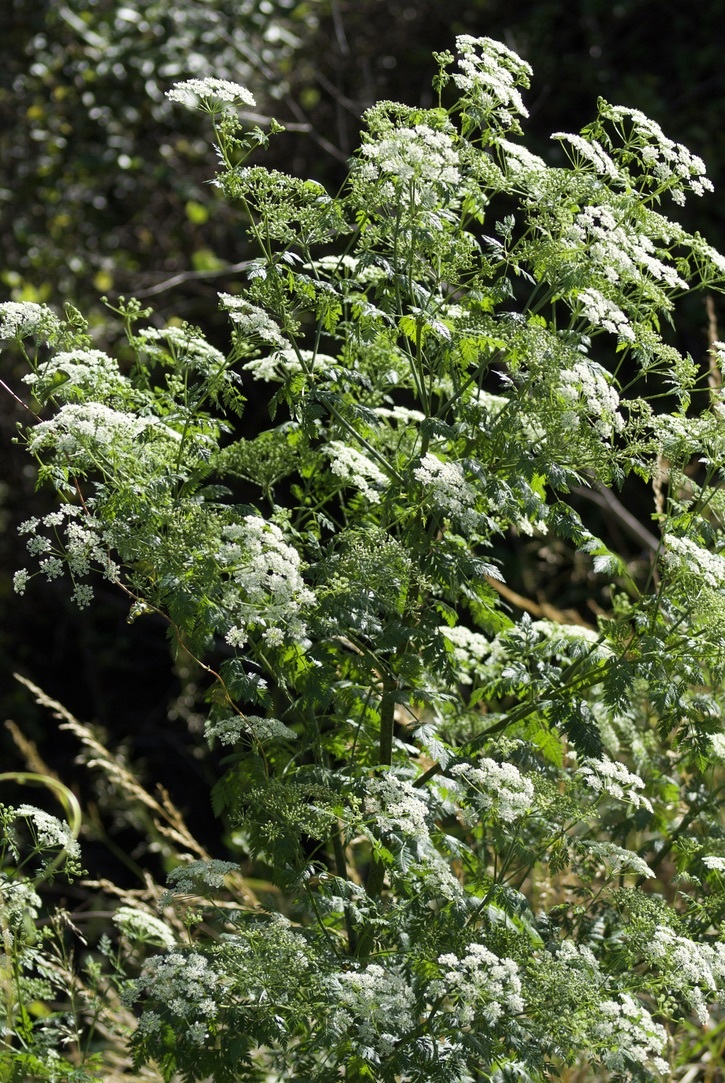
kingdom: Plantae
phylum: Tracheophyta
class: Magnoliopsida
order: Apiales
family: Apiaceae
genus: Conium
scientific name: Conium maculatum
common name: Hemlock
